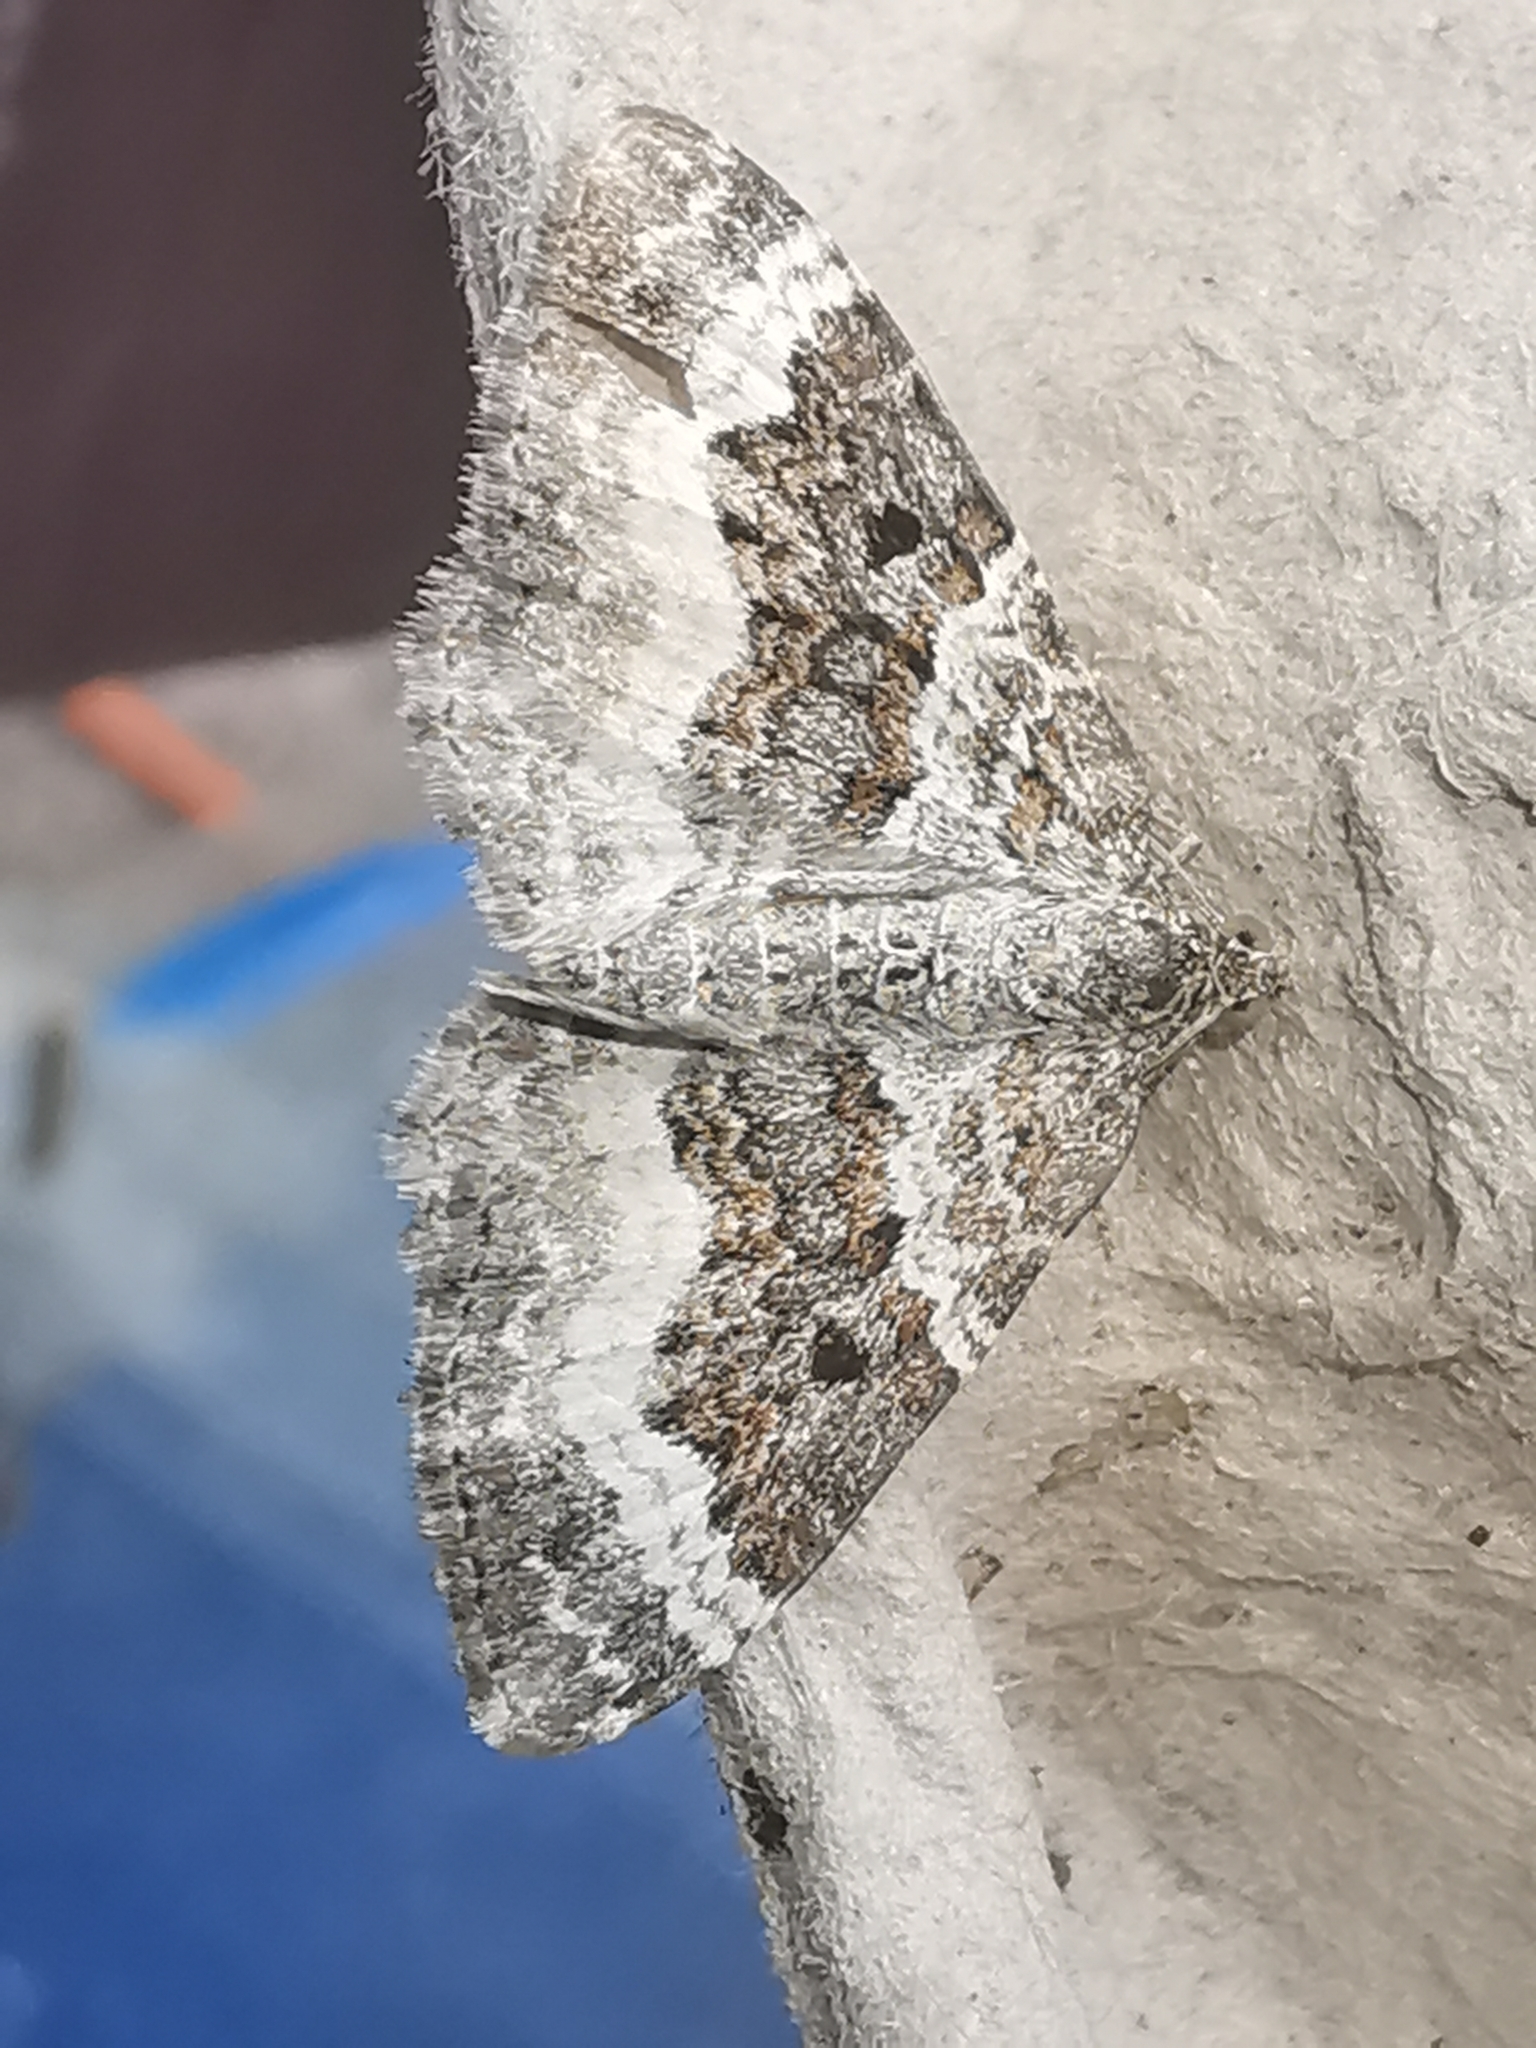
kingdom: Animalia
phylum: Arthropoda
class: Insecta
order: Lepidoptera
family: Geometridae
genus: Epirrhoe
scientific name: Epirrhoe alternata
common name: Common carpet
